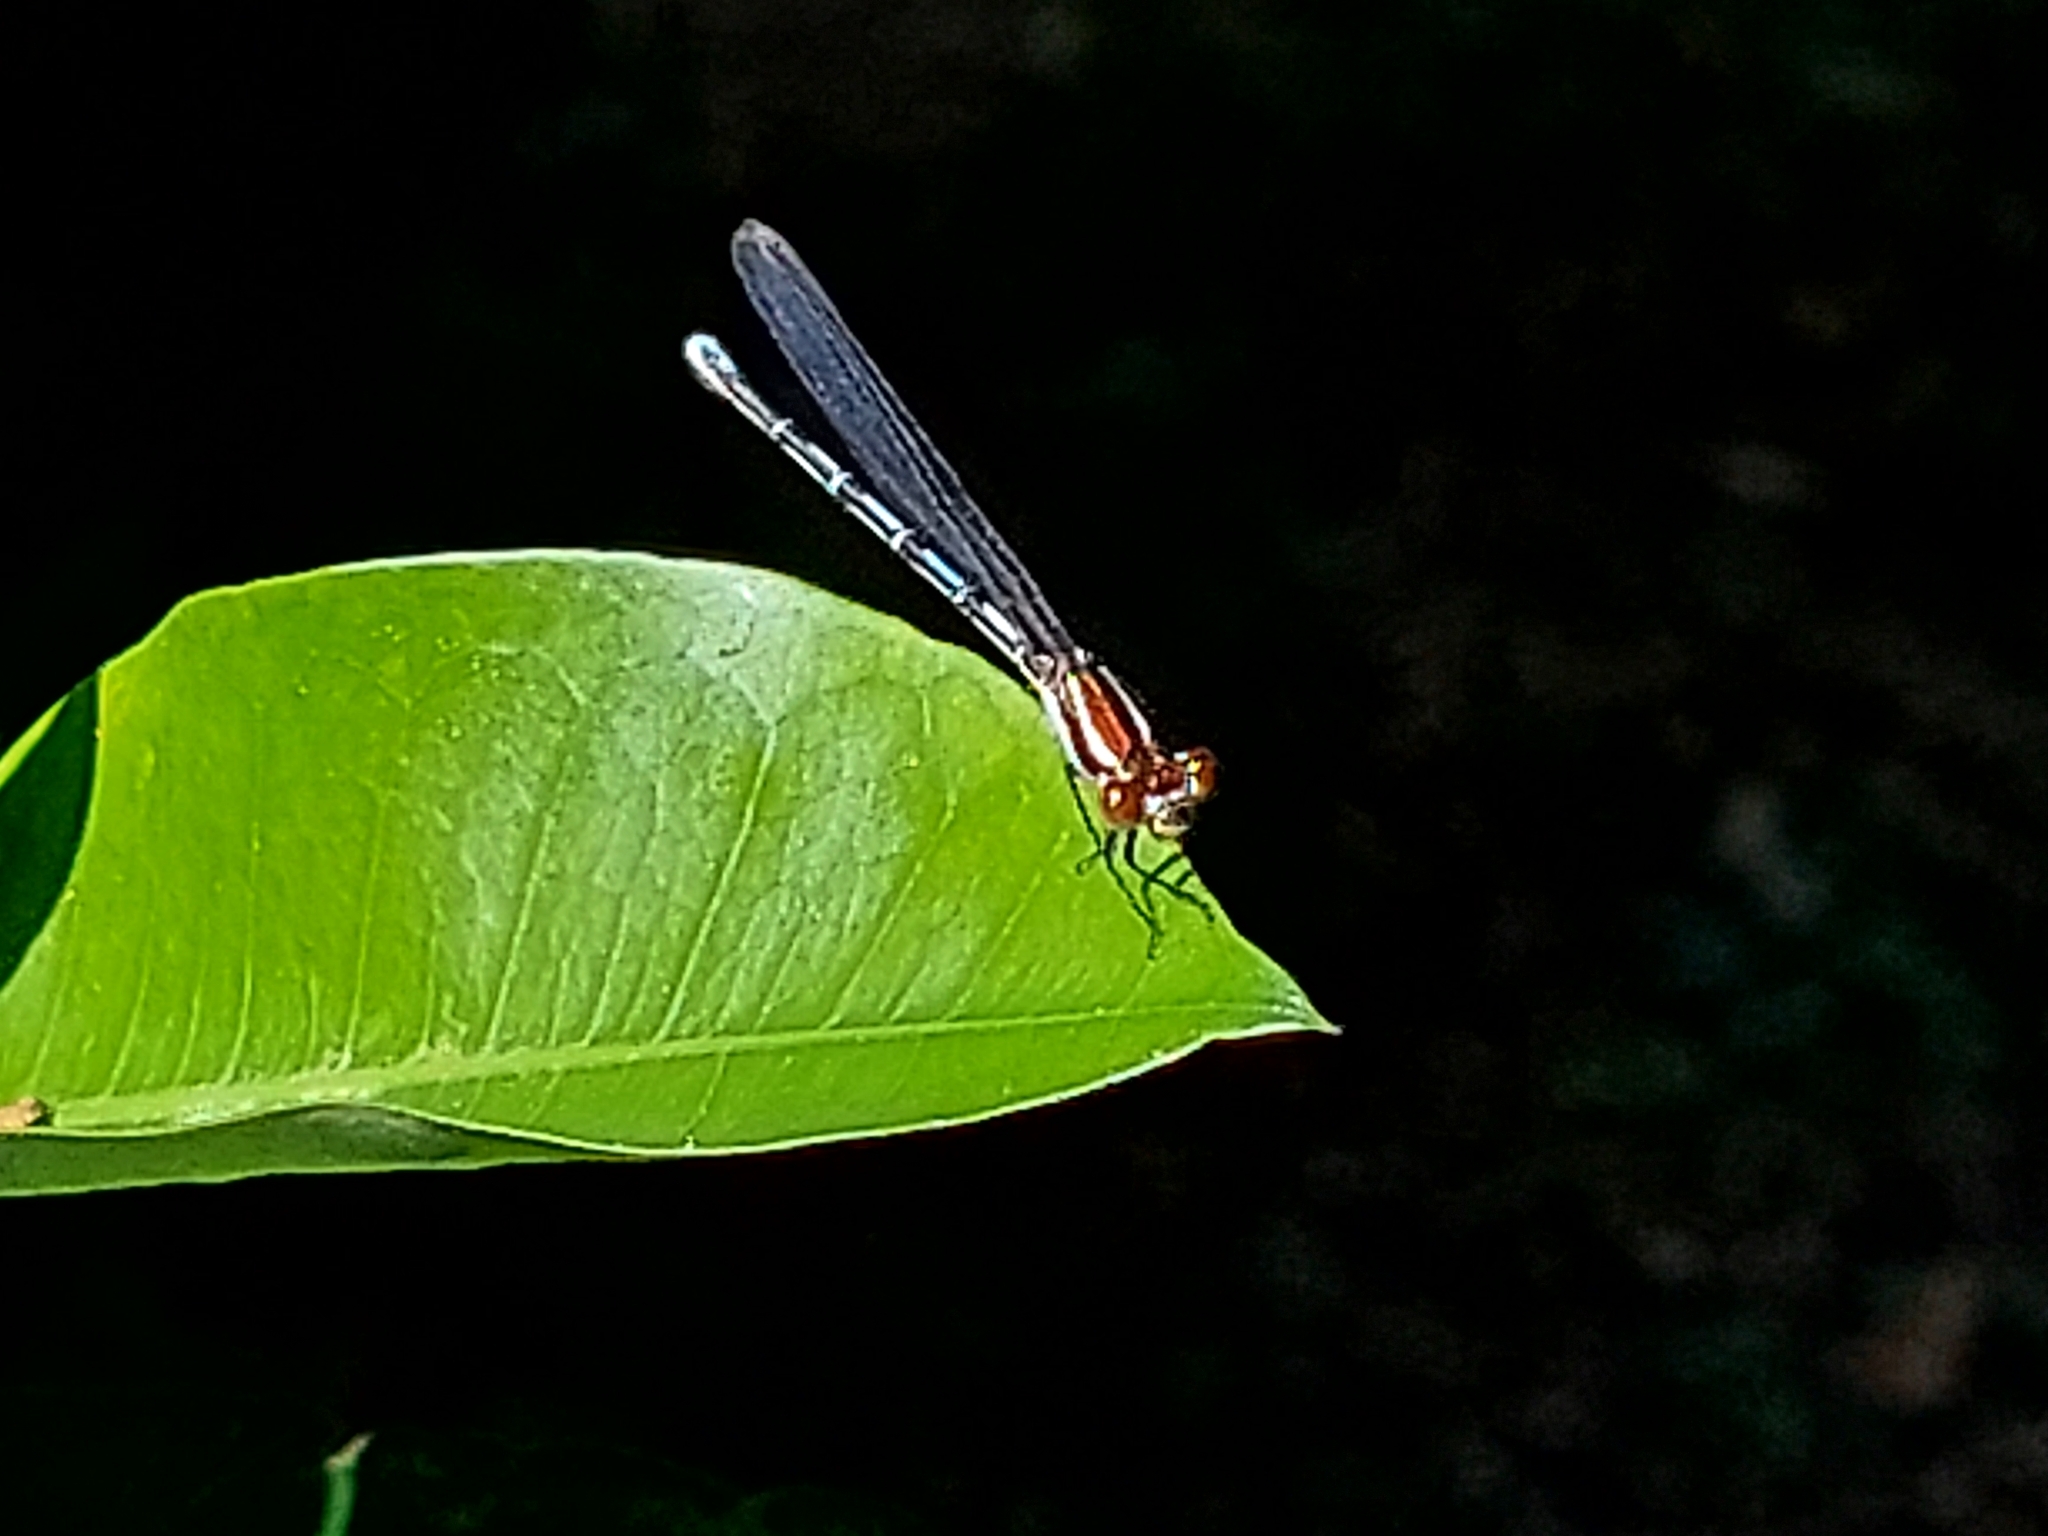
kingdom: Animalia
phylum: Arthropoda
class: Insecta
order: Odonata
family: Coenagrionidae
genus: Argia
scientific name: Argia oenea
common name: Fiery-eyed dancer
